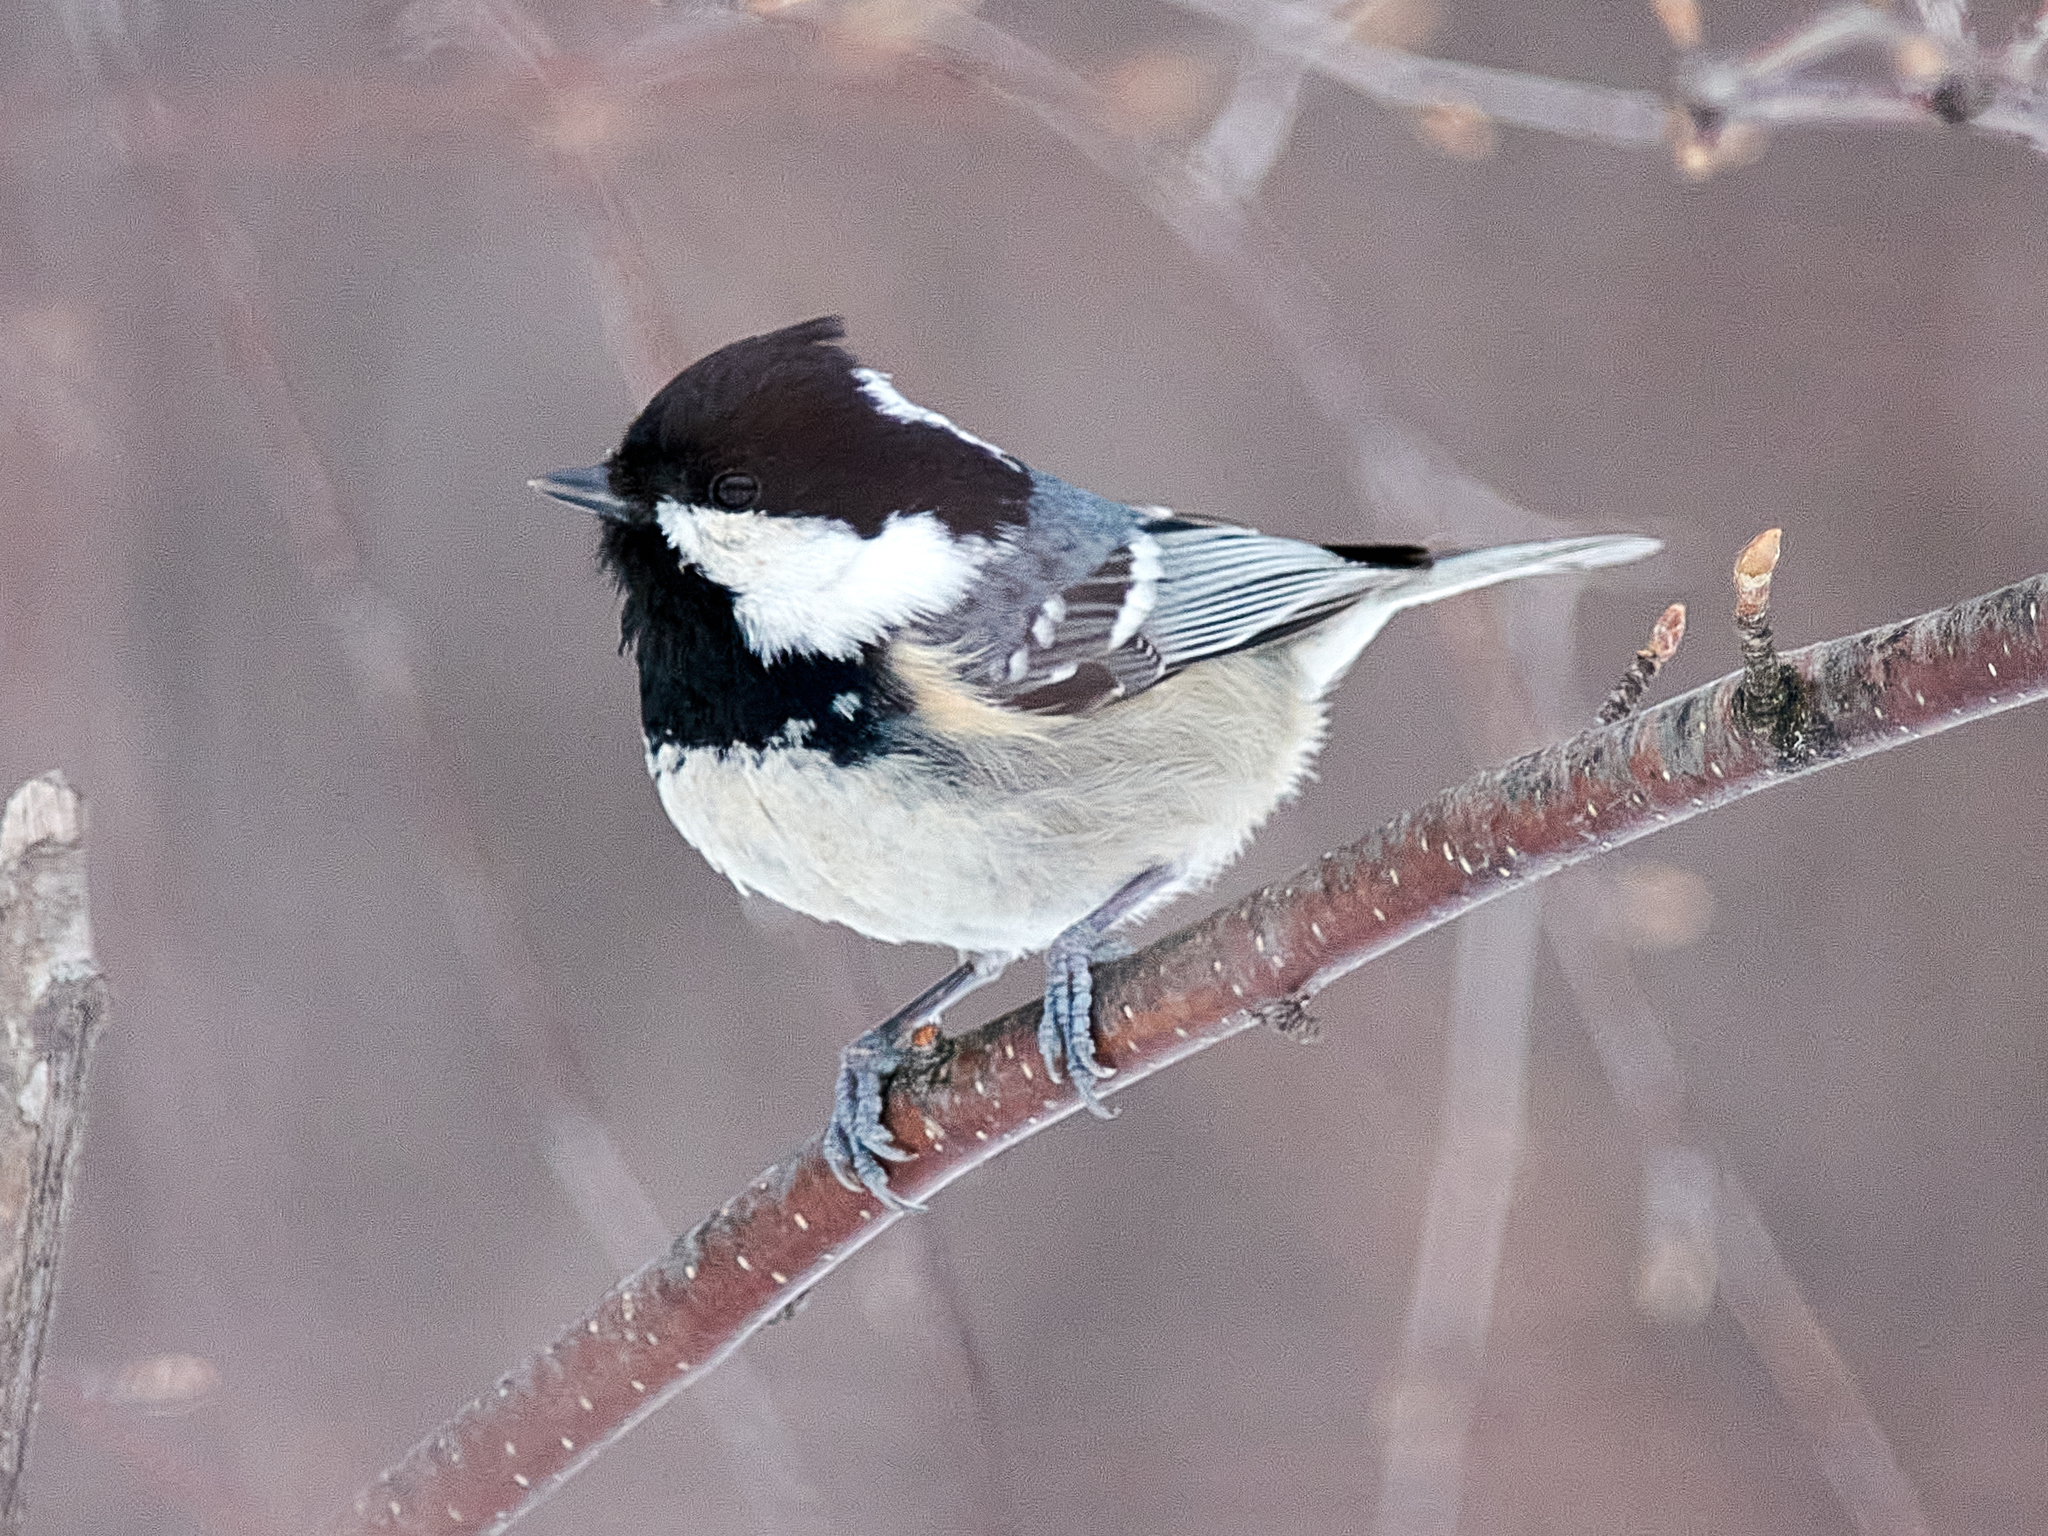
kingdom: Animalia
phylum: Chordata
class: Aves
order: Passeriformes
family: Paridae
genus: Periparus
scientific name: Periparus ater
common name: Coal tit
